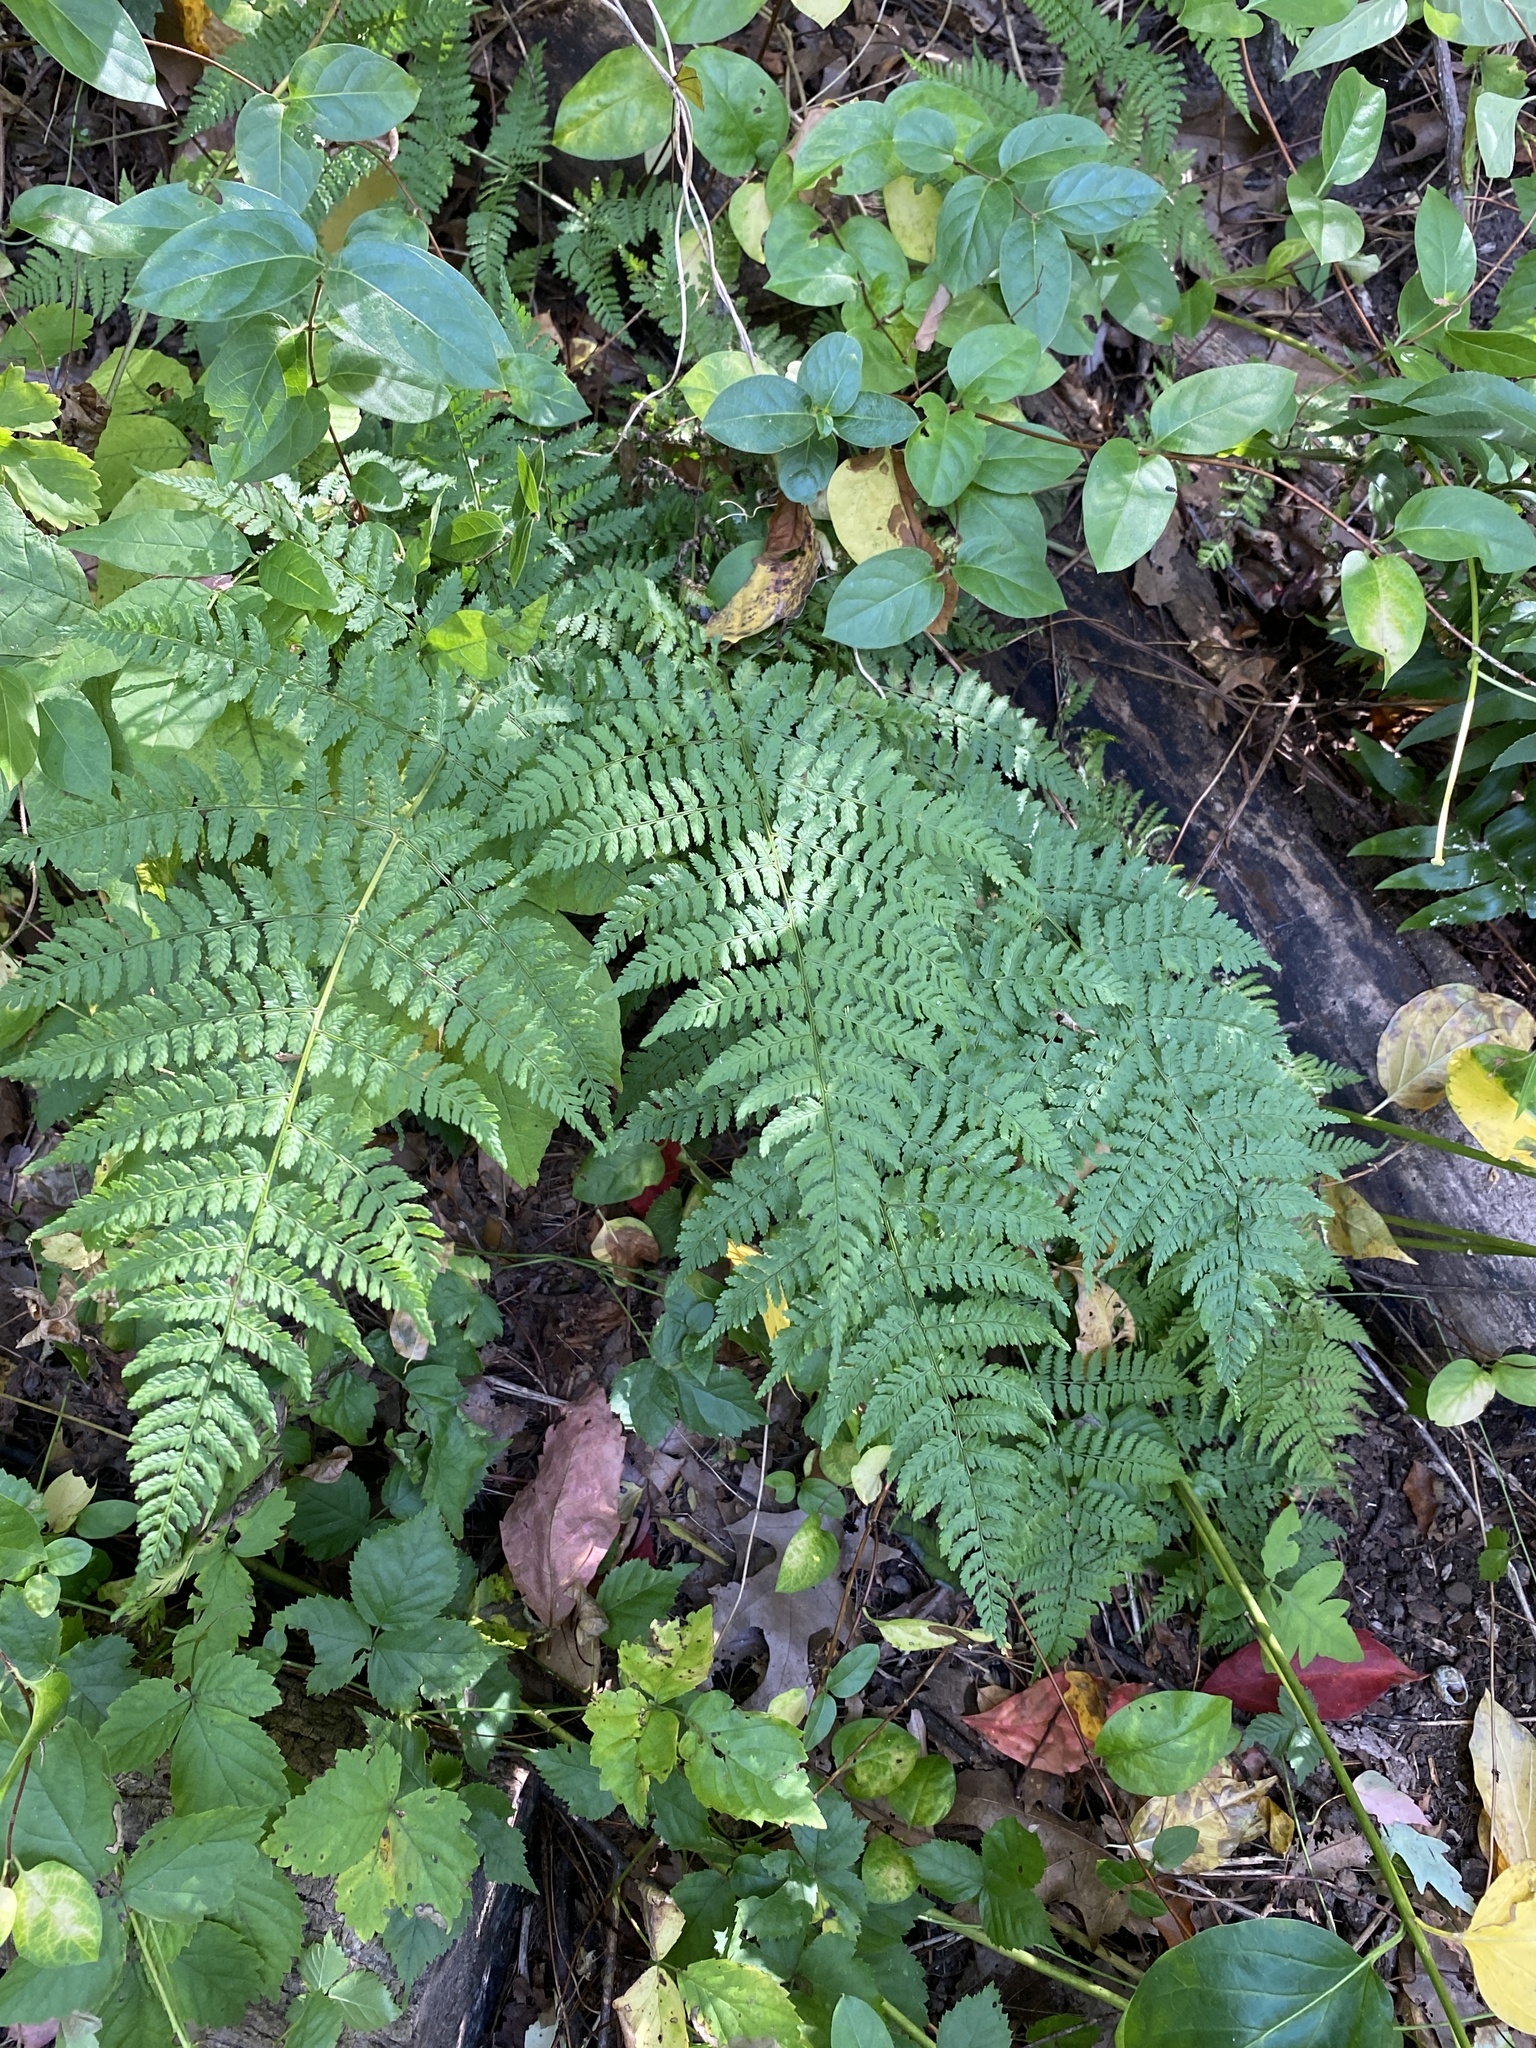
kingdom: Plantae
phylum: Tracheophyta
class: Polypodiopsida
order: Polypodiales
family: Dryopteridaceae
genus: Dryopteris
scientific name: Dryopteris intermedia
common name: Evergreen wood fern
